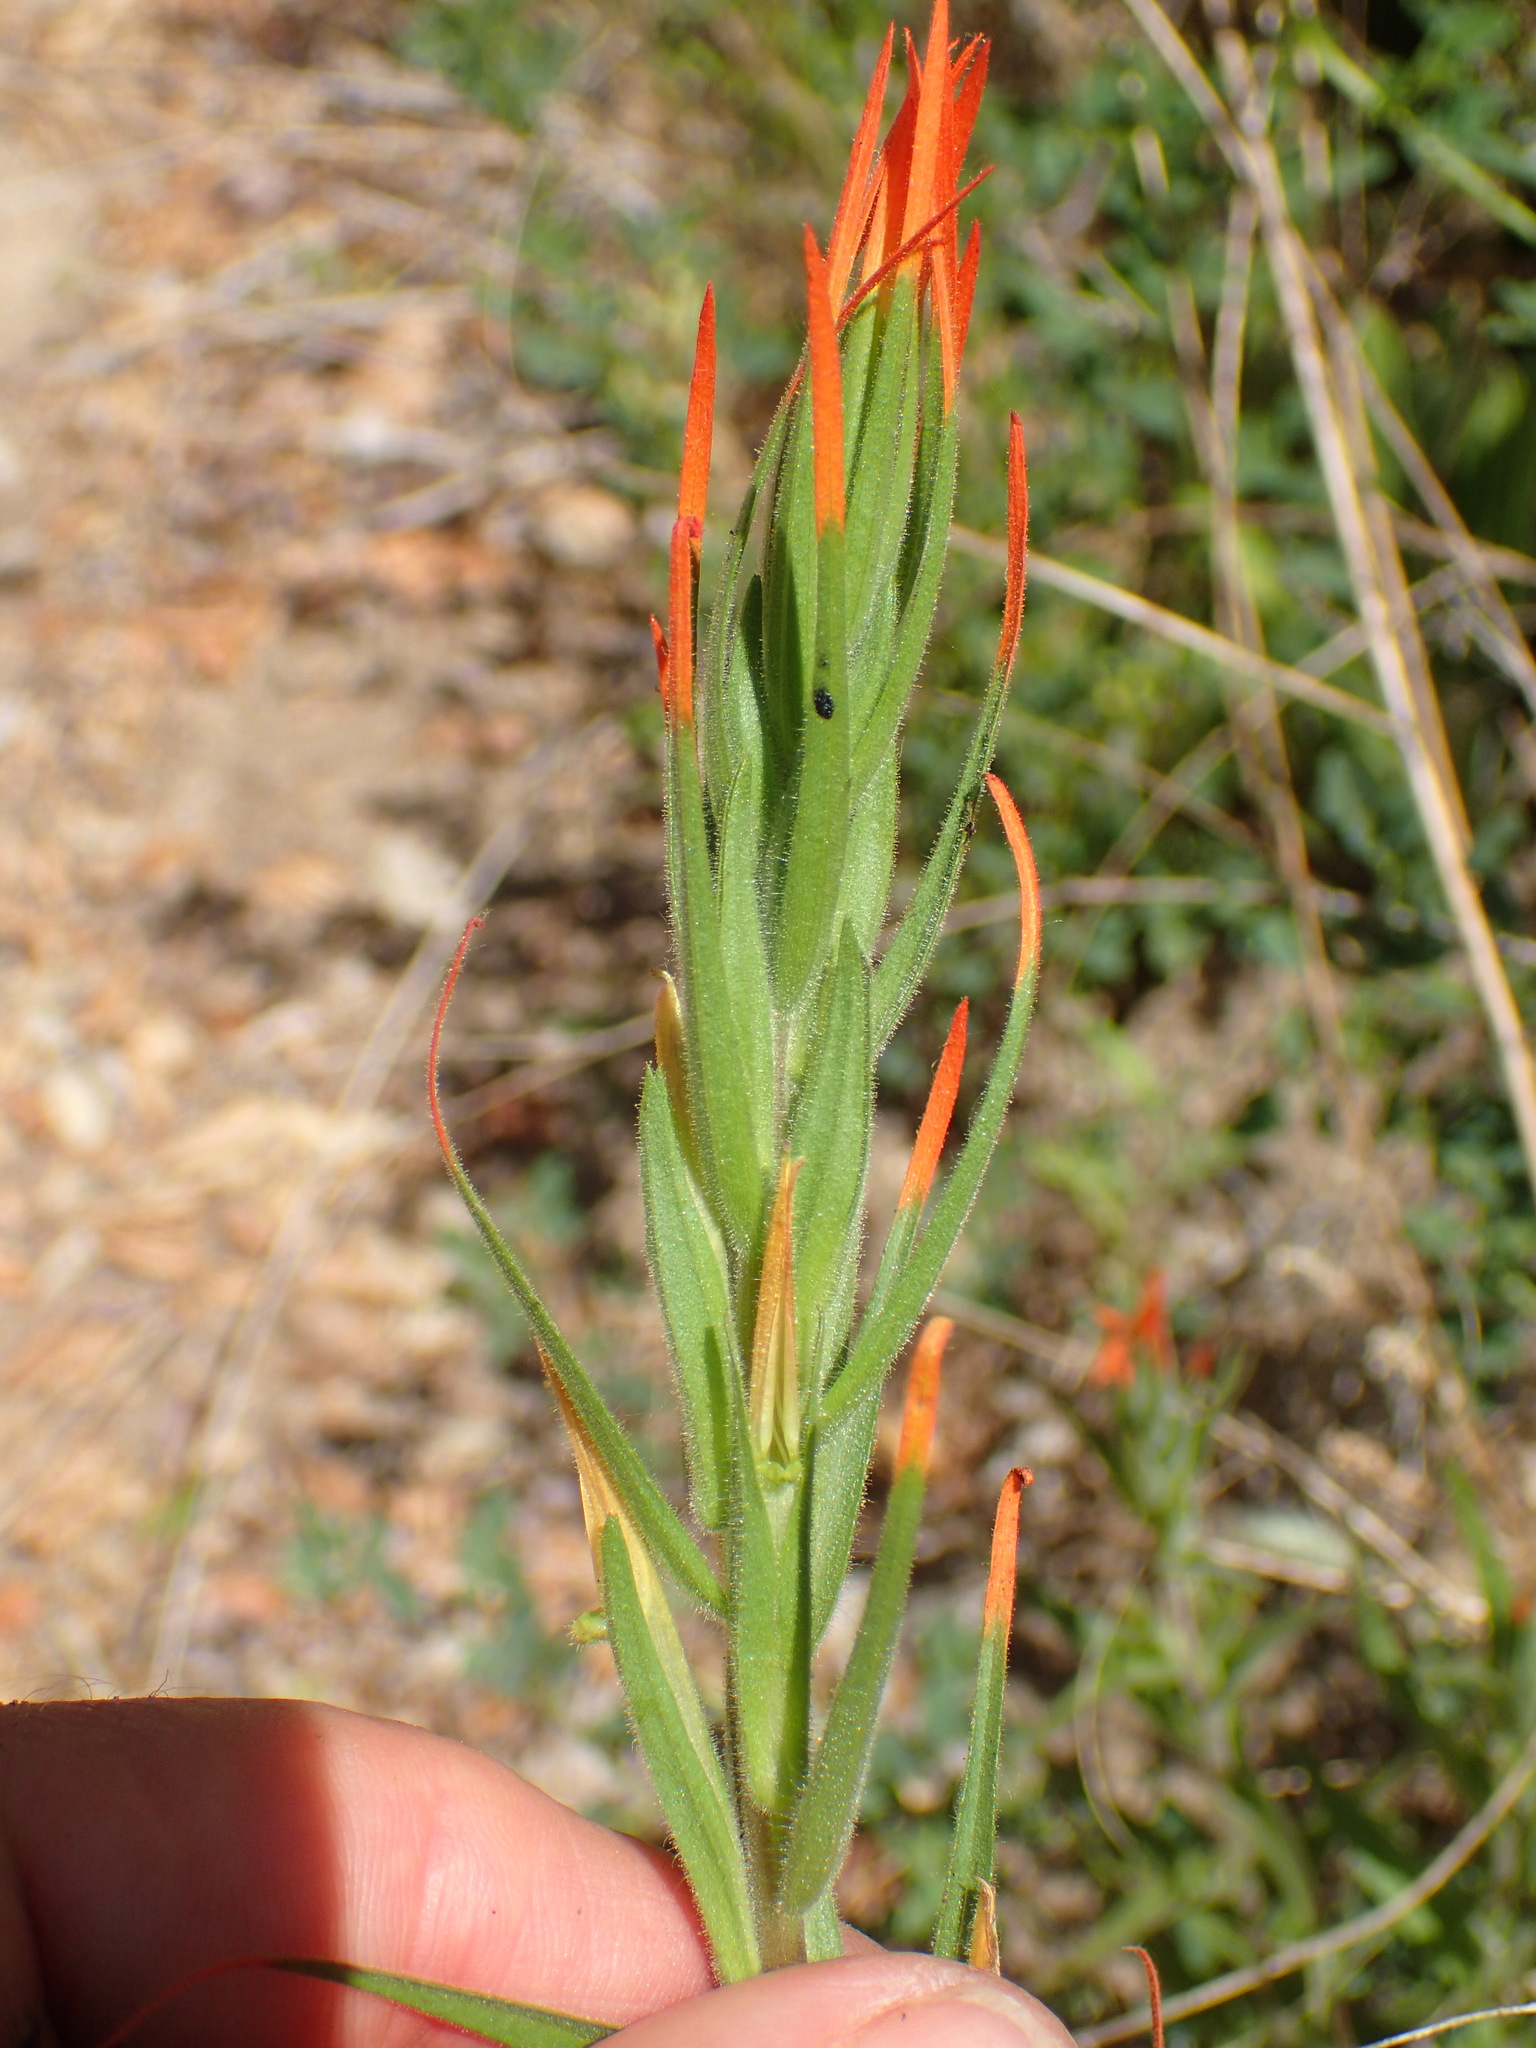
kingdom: Plantae
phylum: Tracheophyta
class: Magnoliopsida
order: Lamiales
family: Orobanchaceae
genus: Castilleja
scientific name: Castilleja minor
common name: Seep paintbrush
